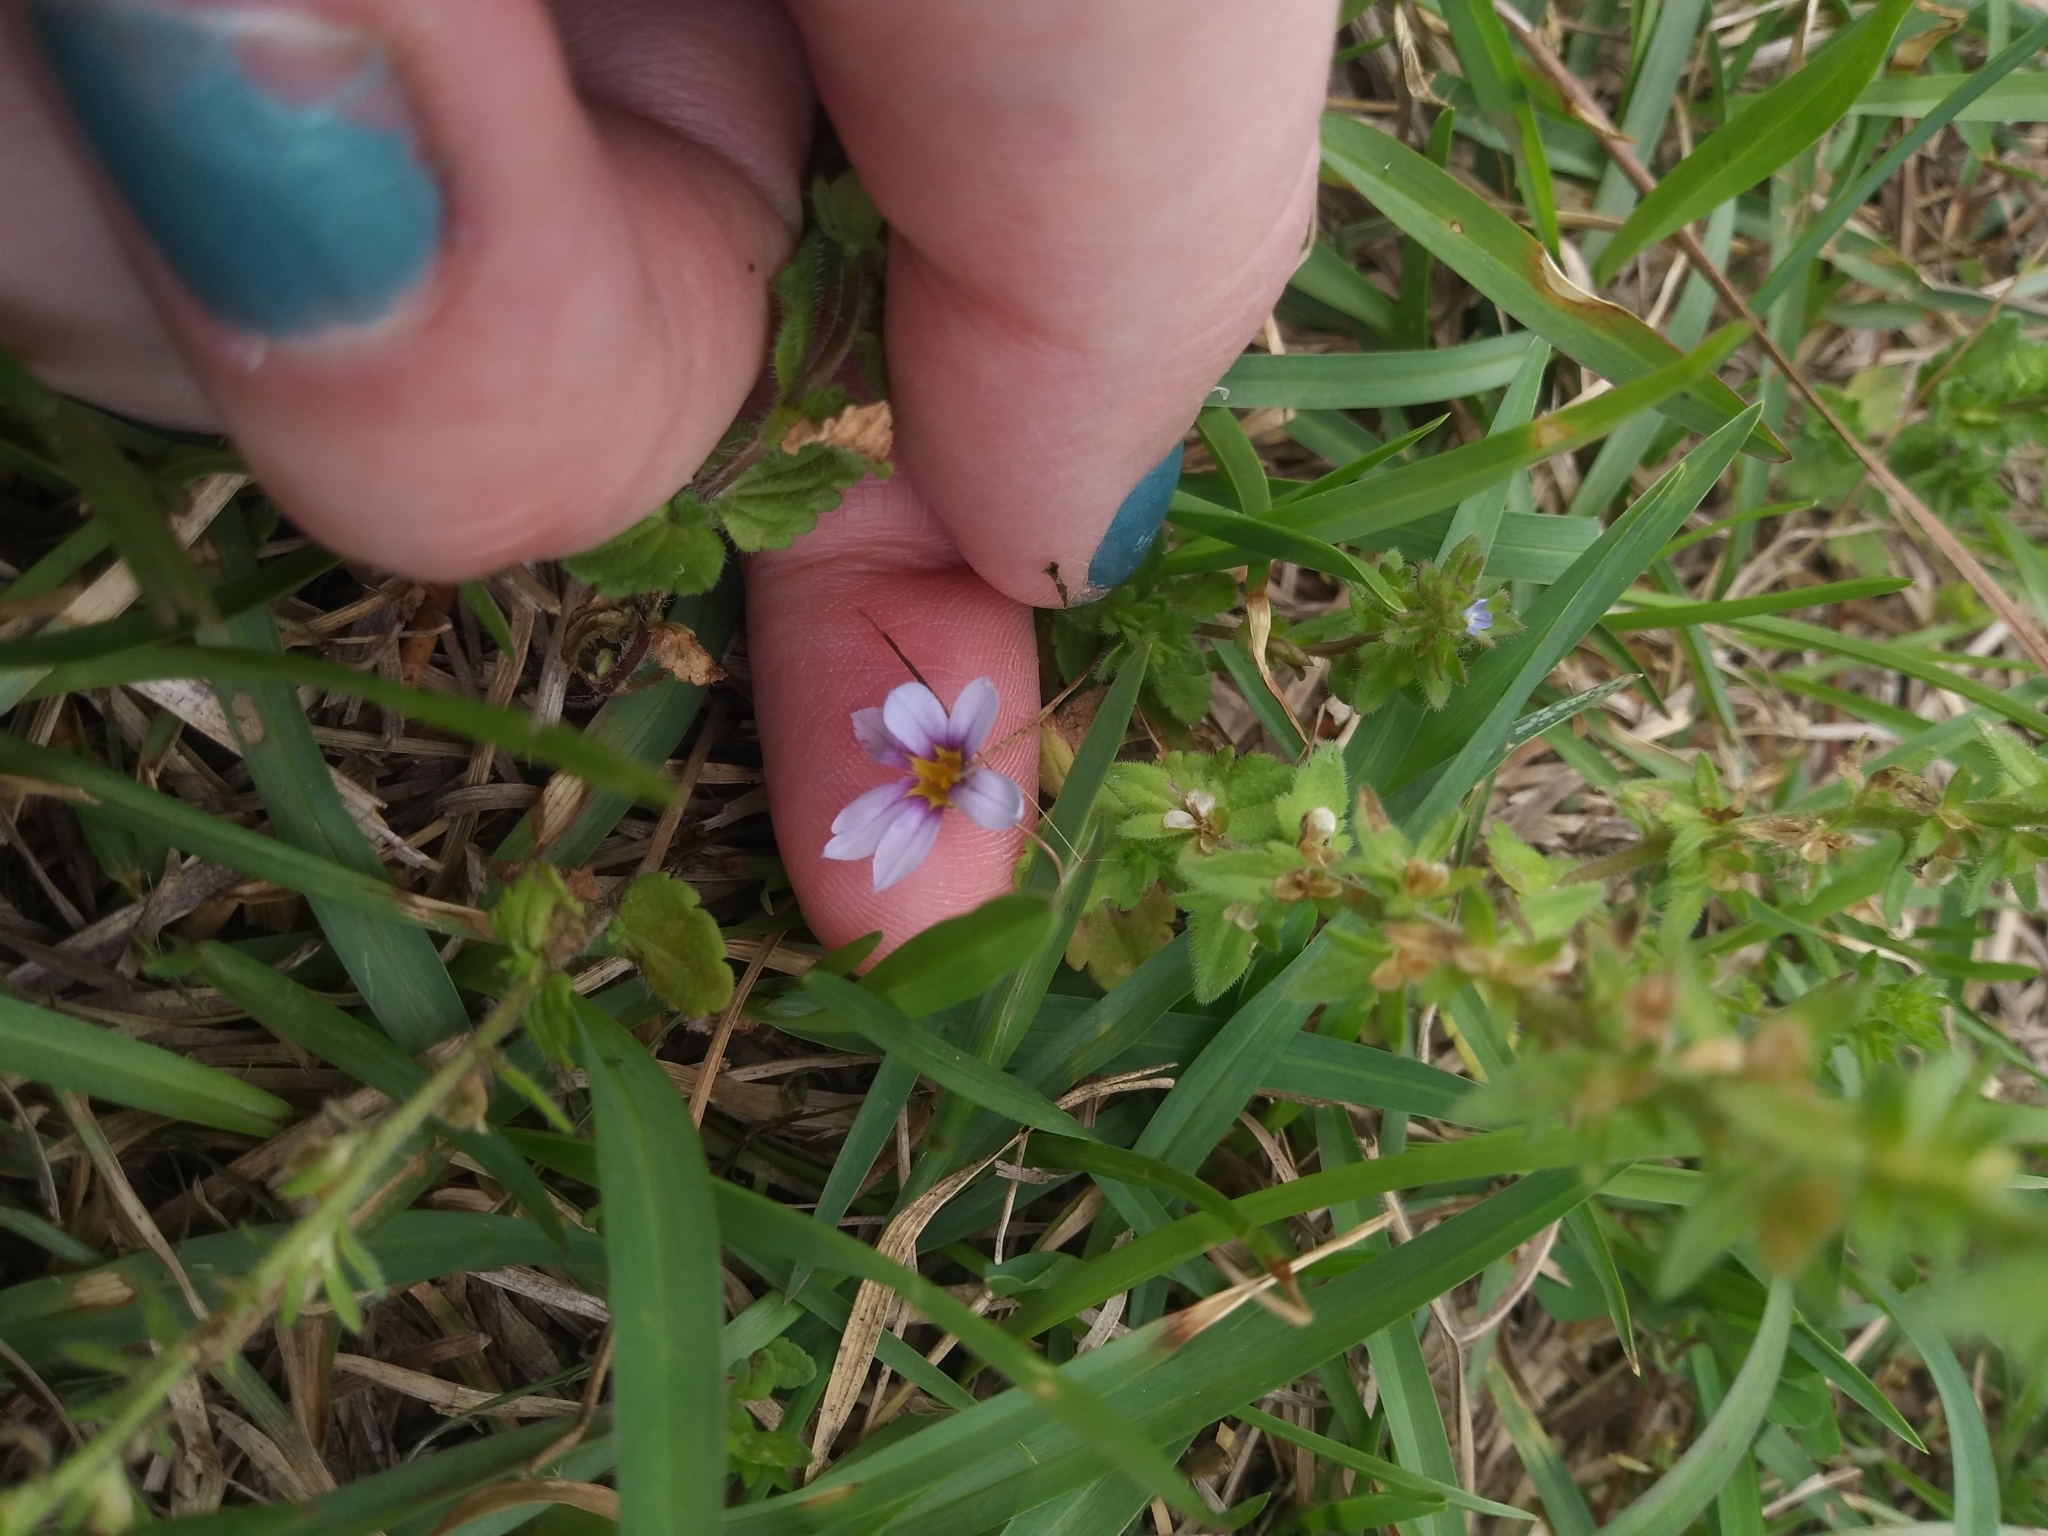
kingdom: Plantae
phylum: Tracheophyta
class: Liliopsida
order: Asparagales
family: Iridaceae
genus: Sisyrinchium
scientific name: Sisyrinchium micranthum
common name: Bermuda pigroot
